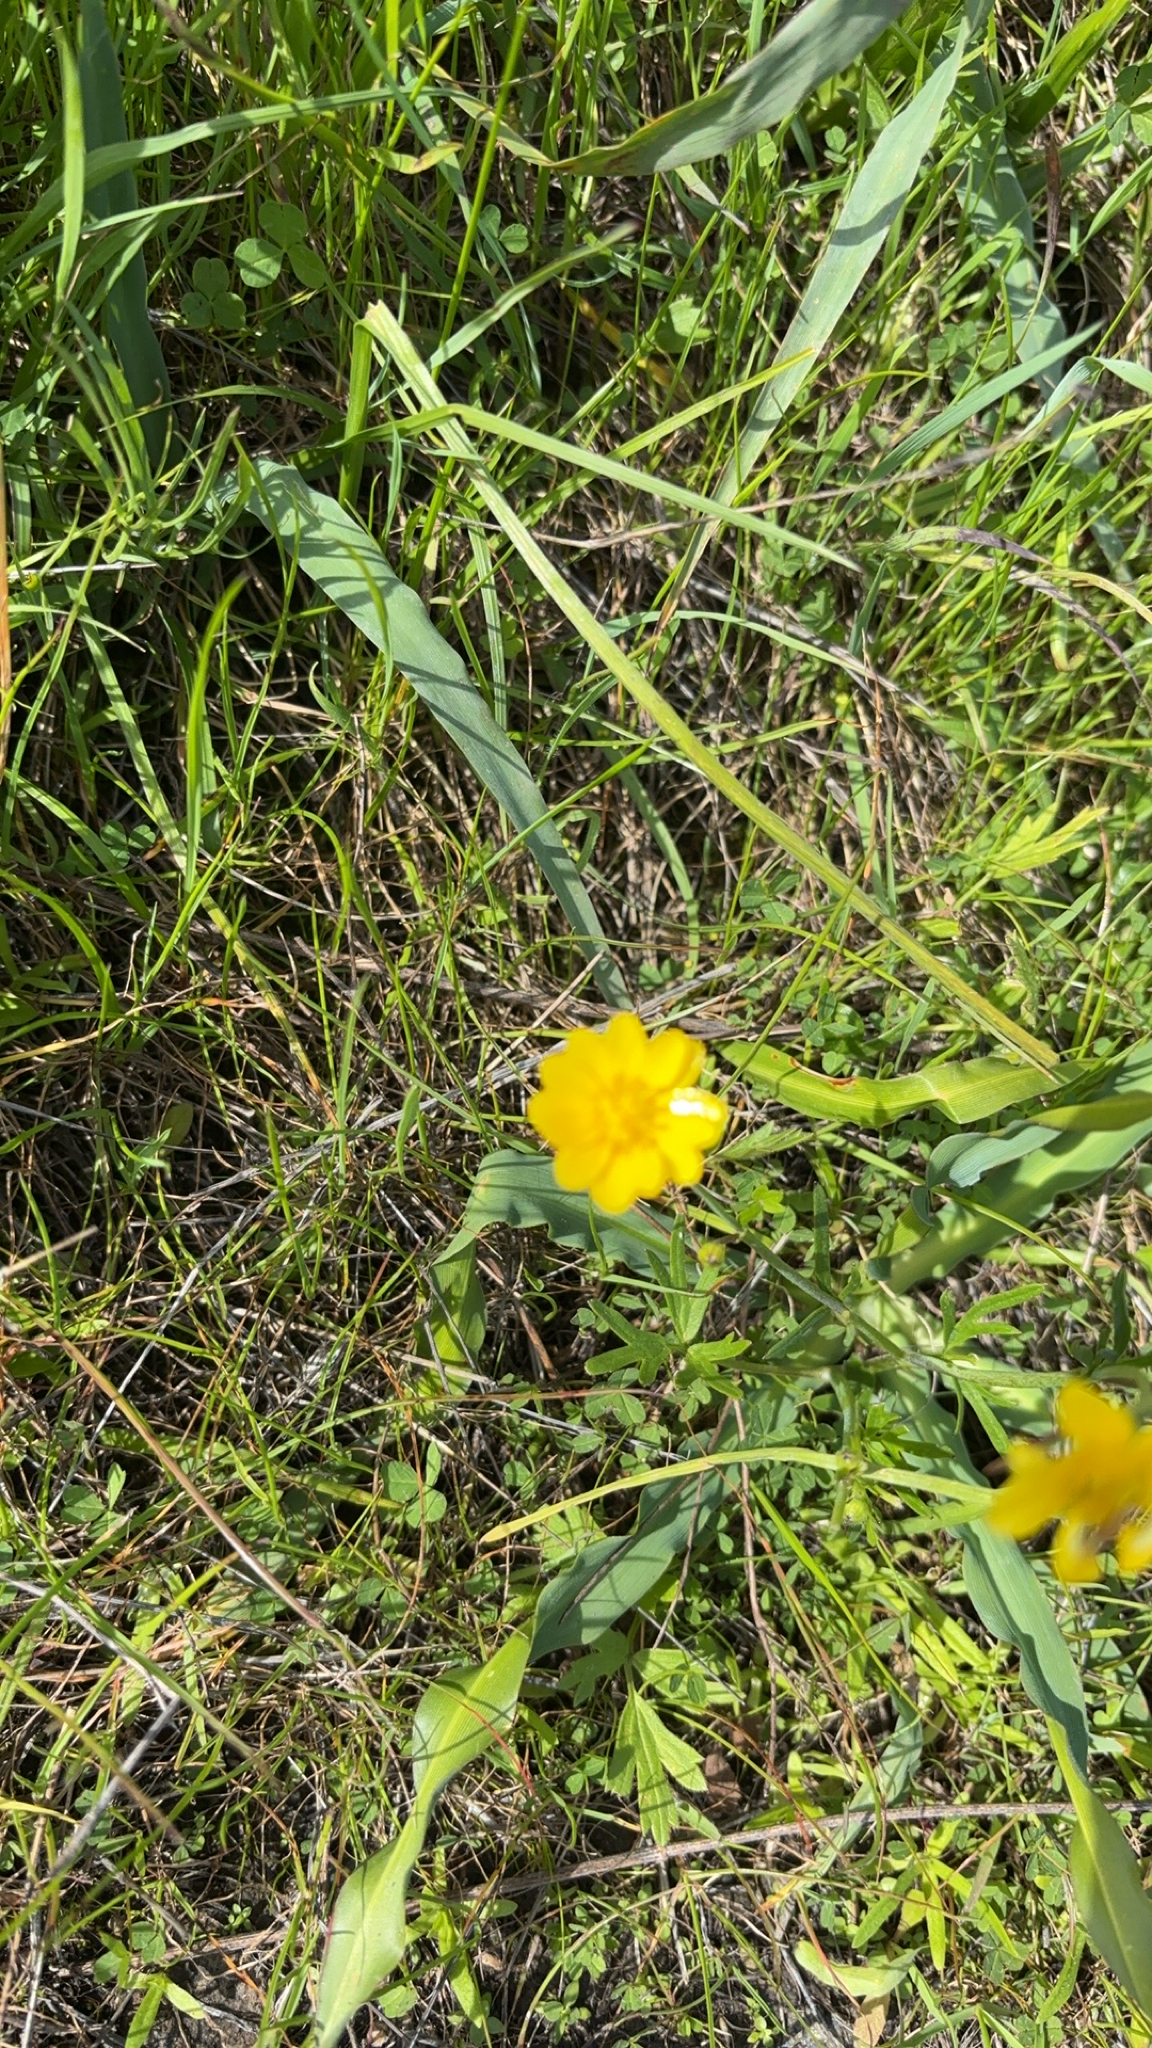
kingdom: Plantae
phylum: Tracheophyta
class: Magnoliopsida
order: Ranunculales
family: Ranunculaceae
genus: Ranunculus
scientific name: Ranunculus californicus
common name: California buttercup
